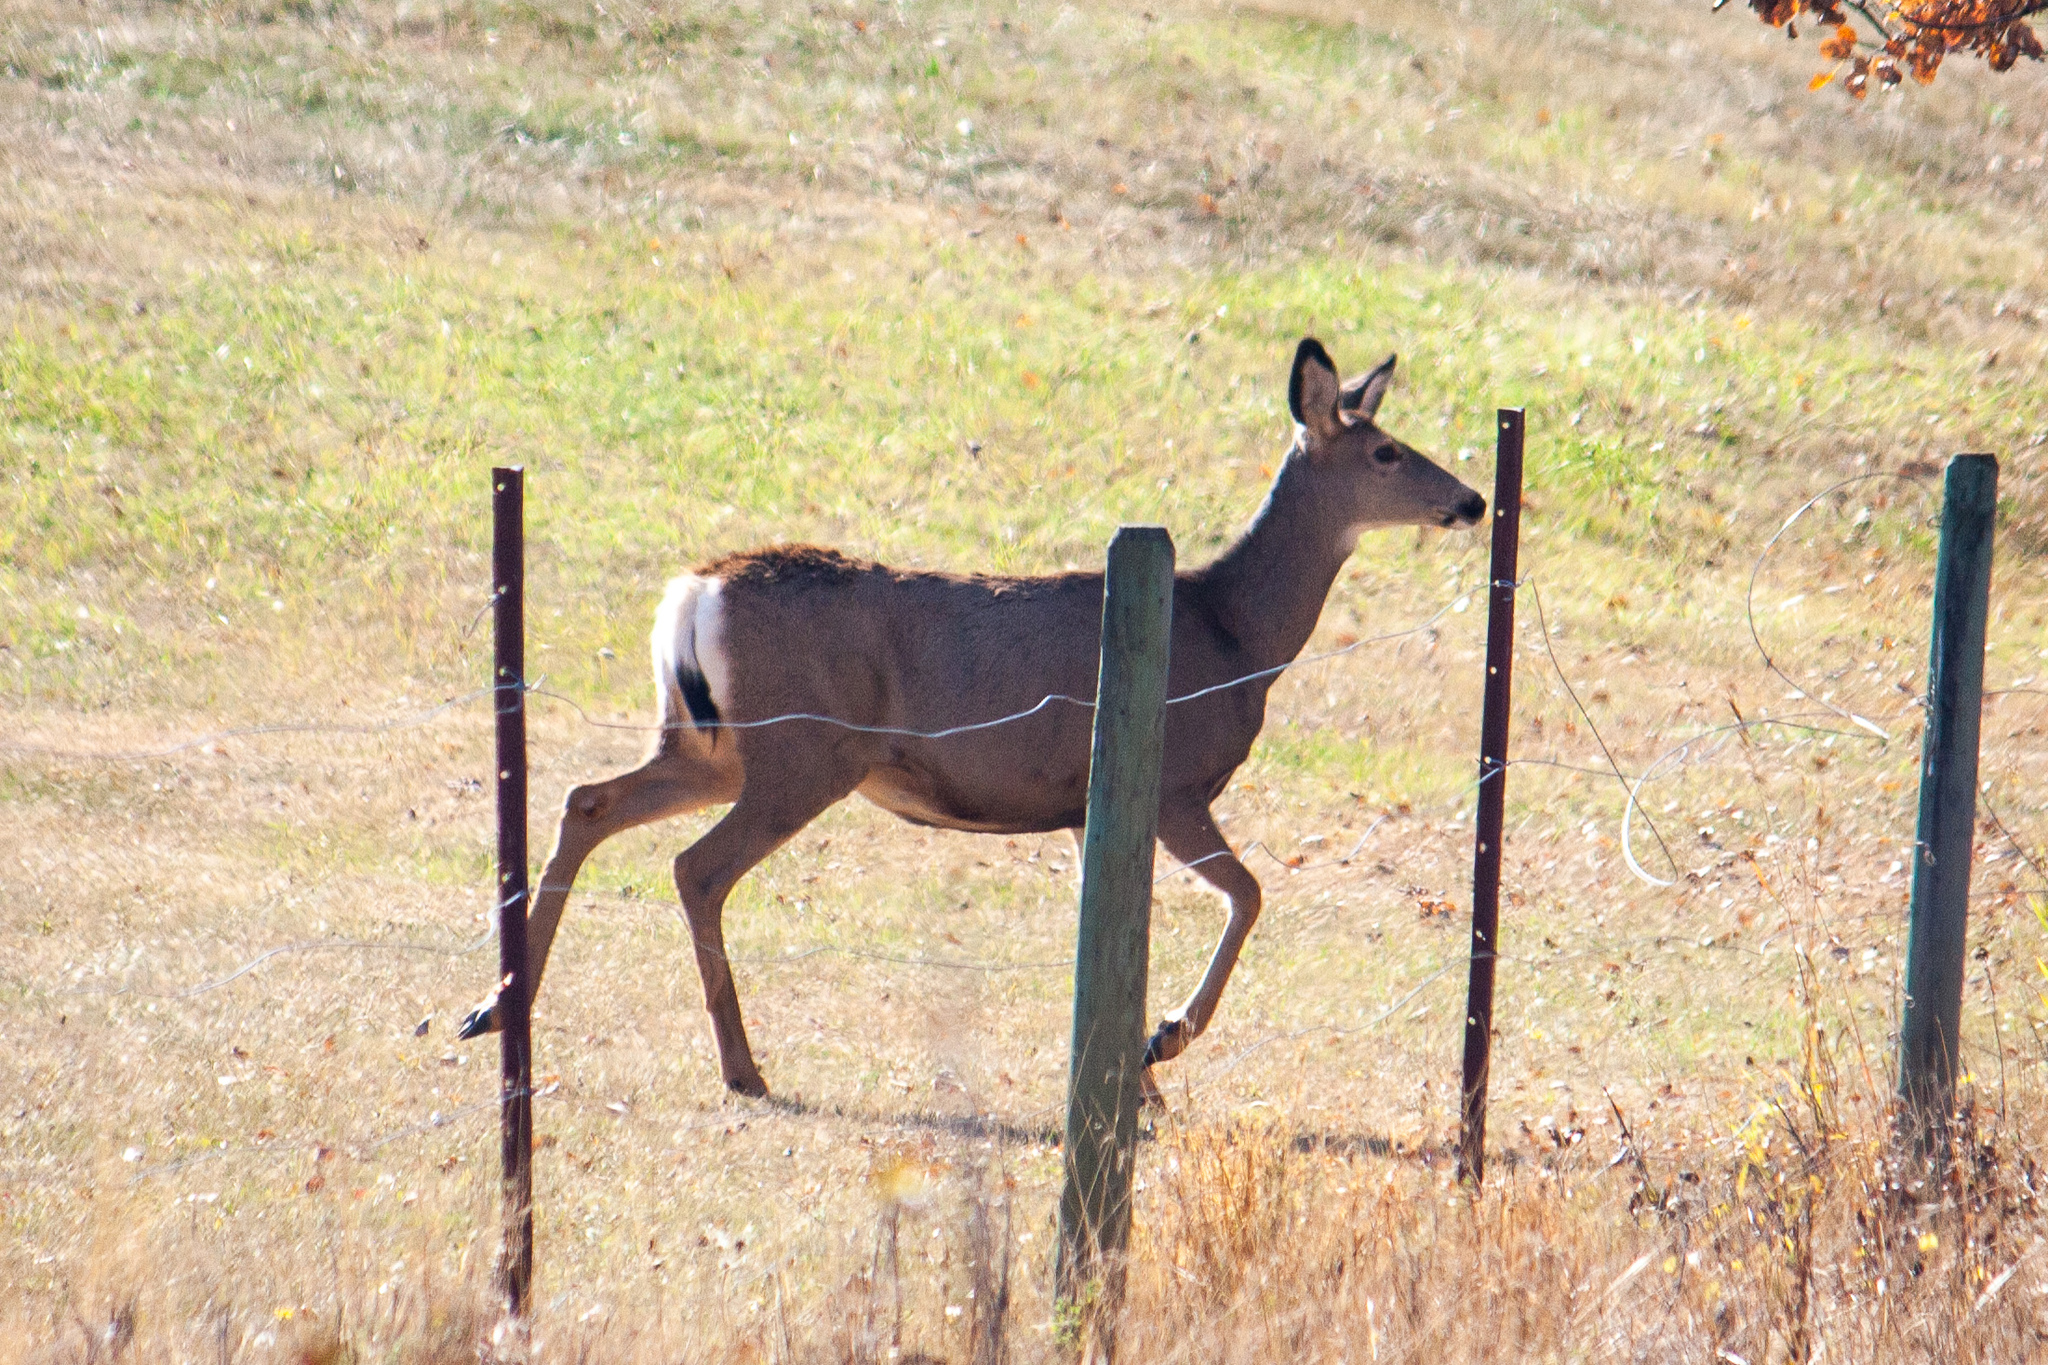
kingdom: Animalia
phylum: Chordata
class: Mammalia
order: Artiodactyla
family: Cervidae
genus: Odocoileus
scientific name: Odocoileus hemionus
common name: Mule deer
